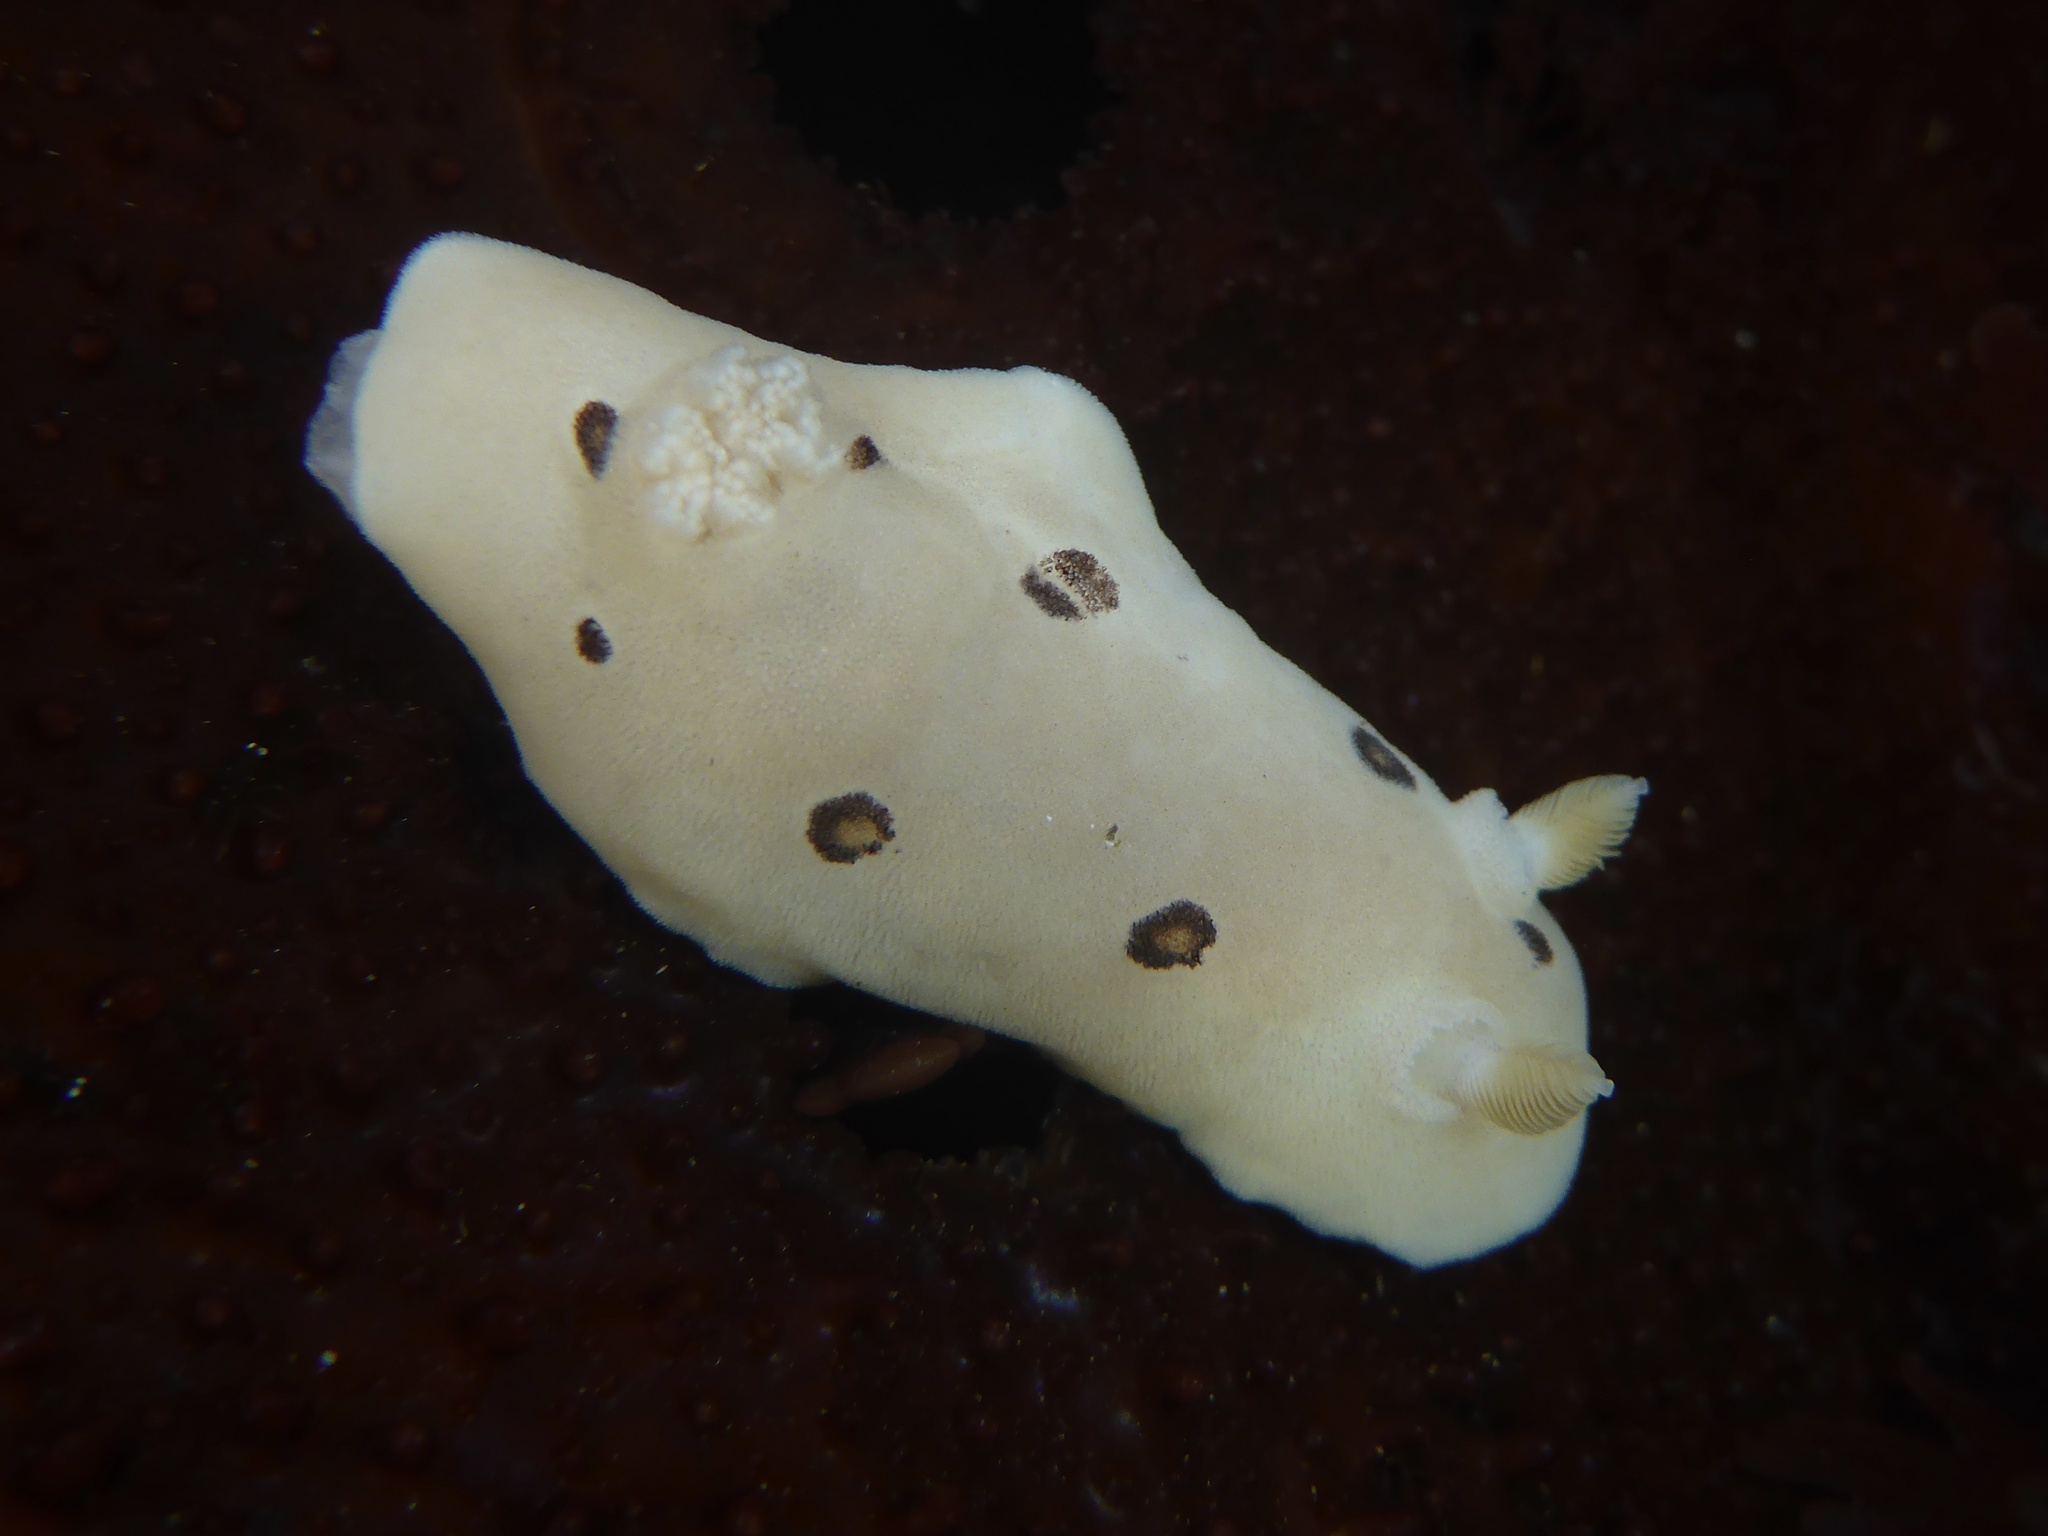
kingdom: Animalia
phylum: Mollusca
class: Gastropoda
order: Nudibranchia
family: Discodorididae
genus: Diaulula
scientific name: Diaulula sandiegensis
